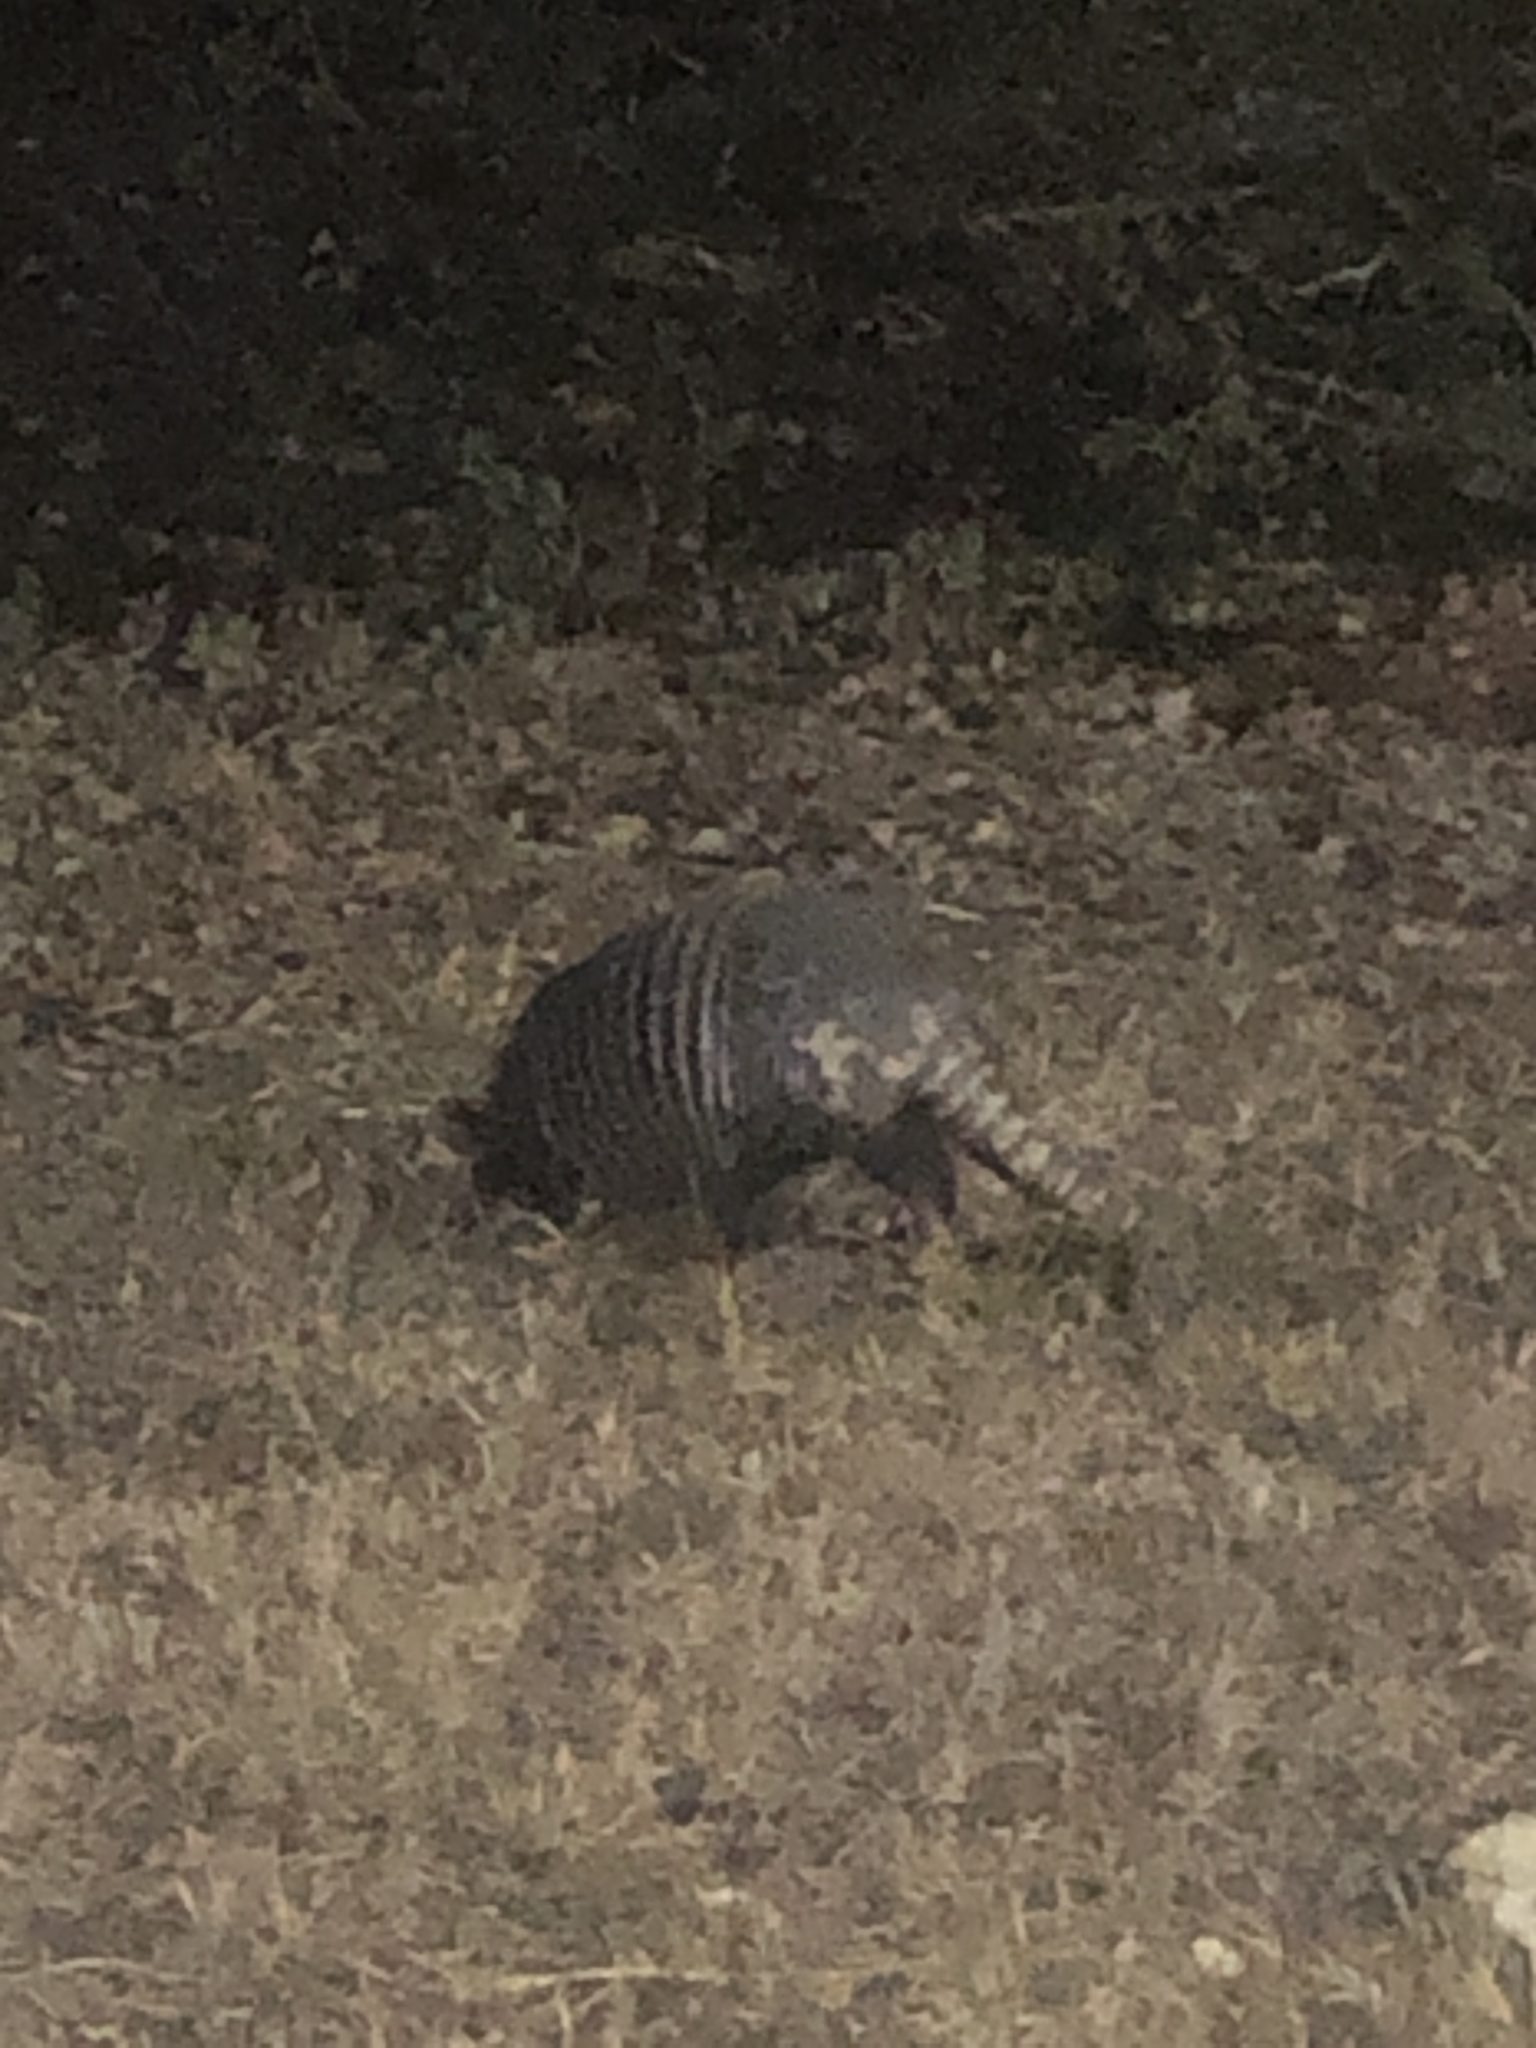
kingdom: Animalia
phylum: Chordata
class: Mammalia
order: Cingulata
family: Dasypodidae
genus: Dasypus
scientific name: Dasypus novemcinctus
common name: Nine-banded armadillo
